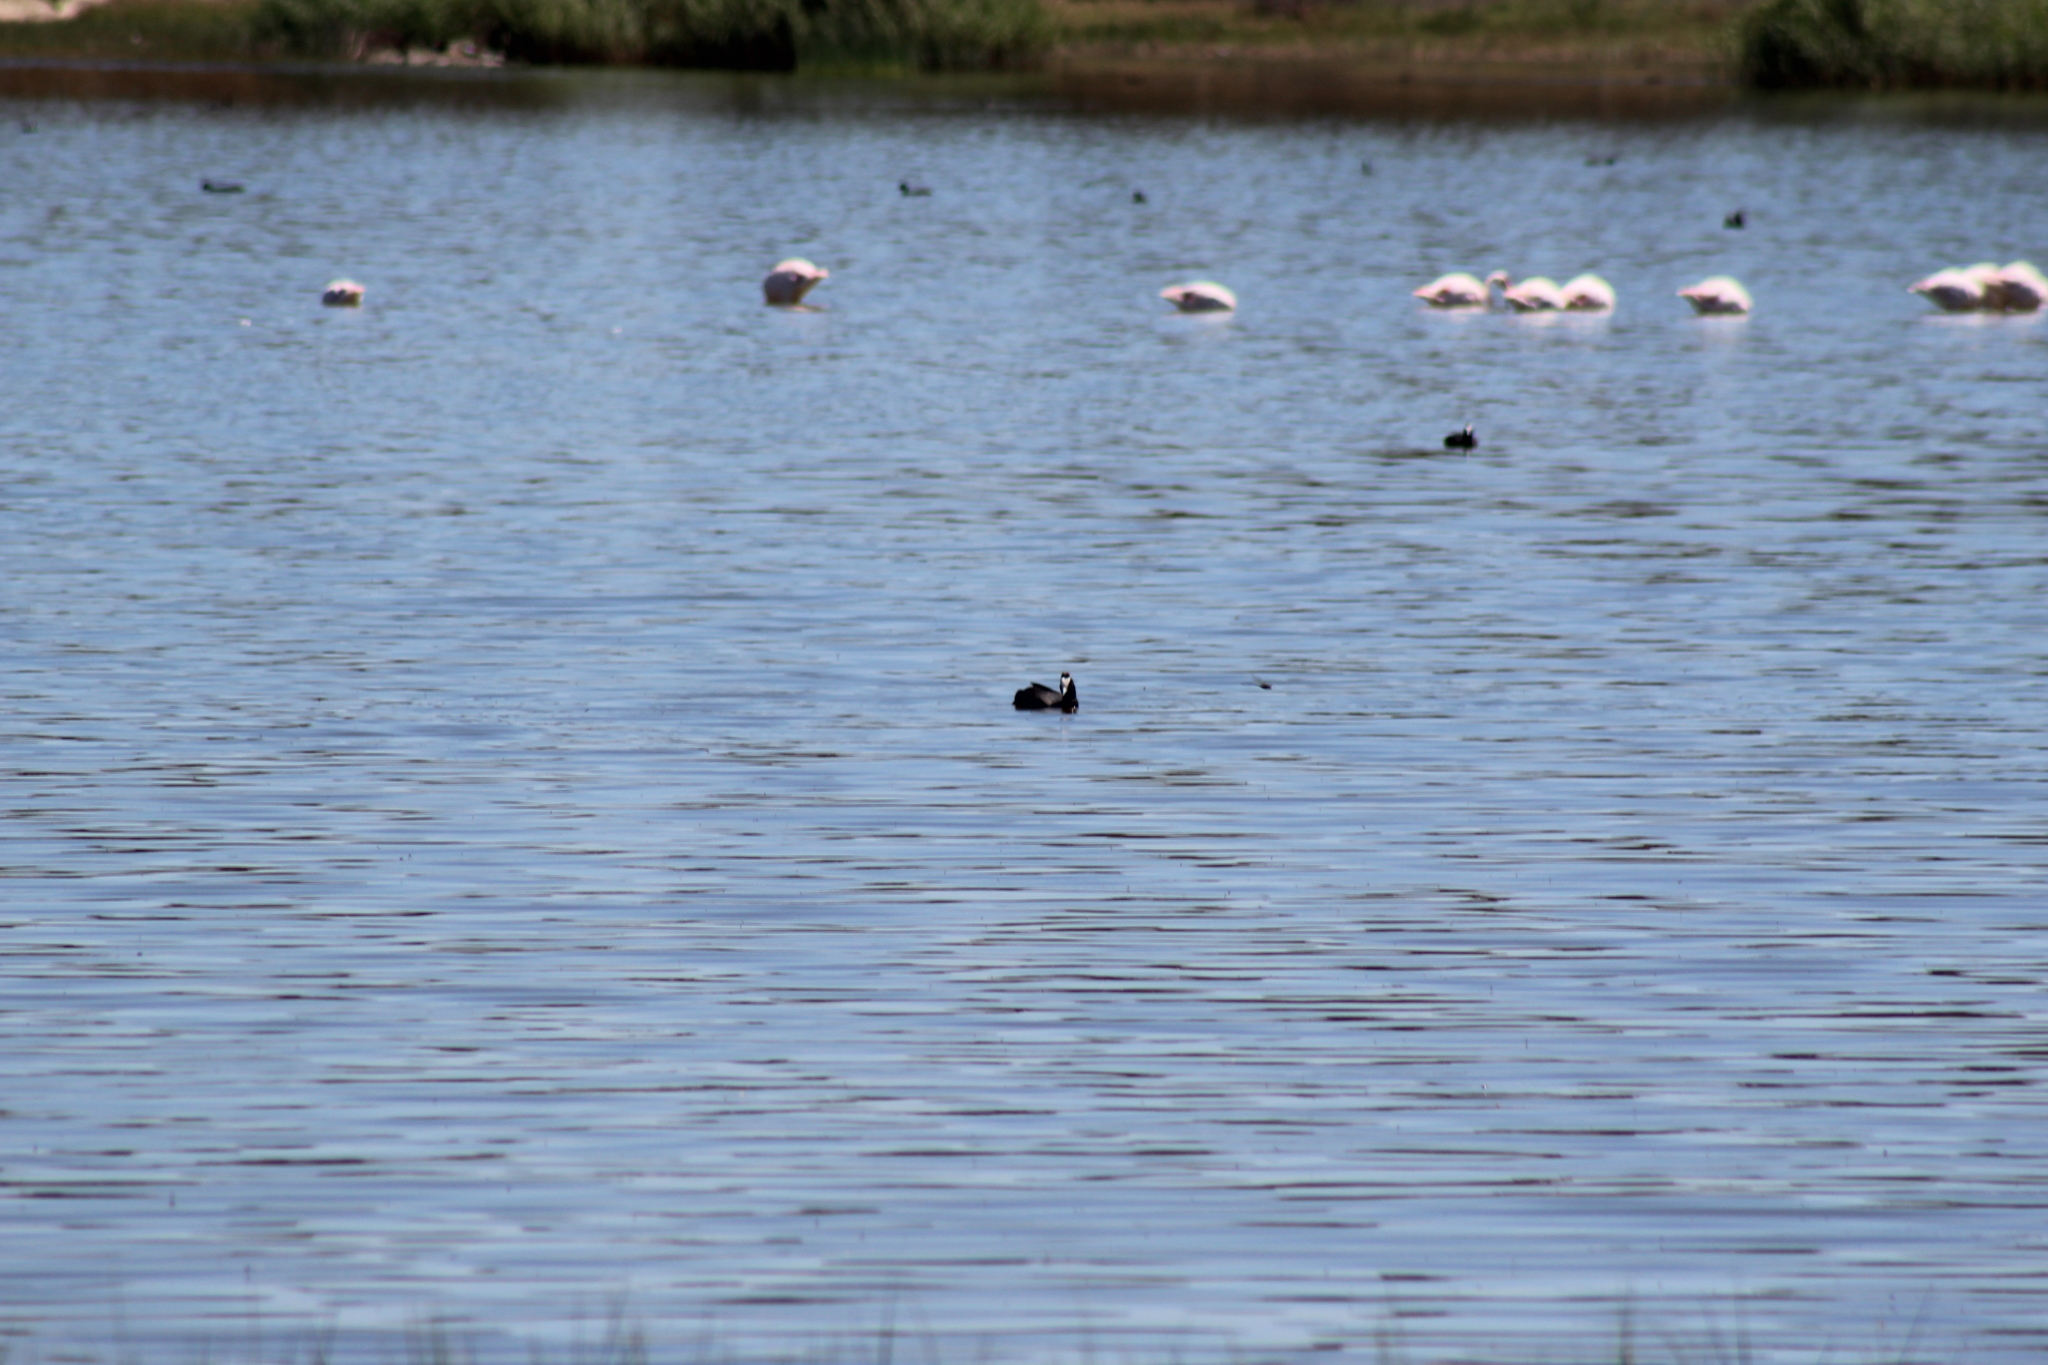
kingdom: Animalia
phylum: Chordata
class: Aves
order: Gruiformes
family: Rallidae
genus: Fulica
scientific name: Fulica cristata
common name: Red-knobbed coot
